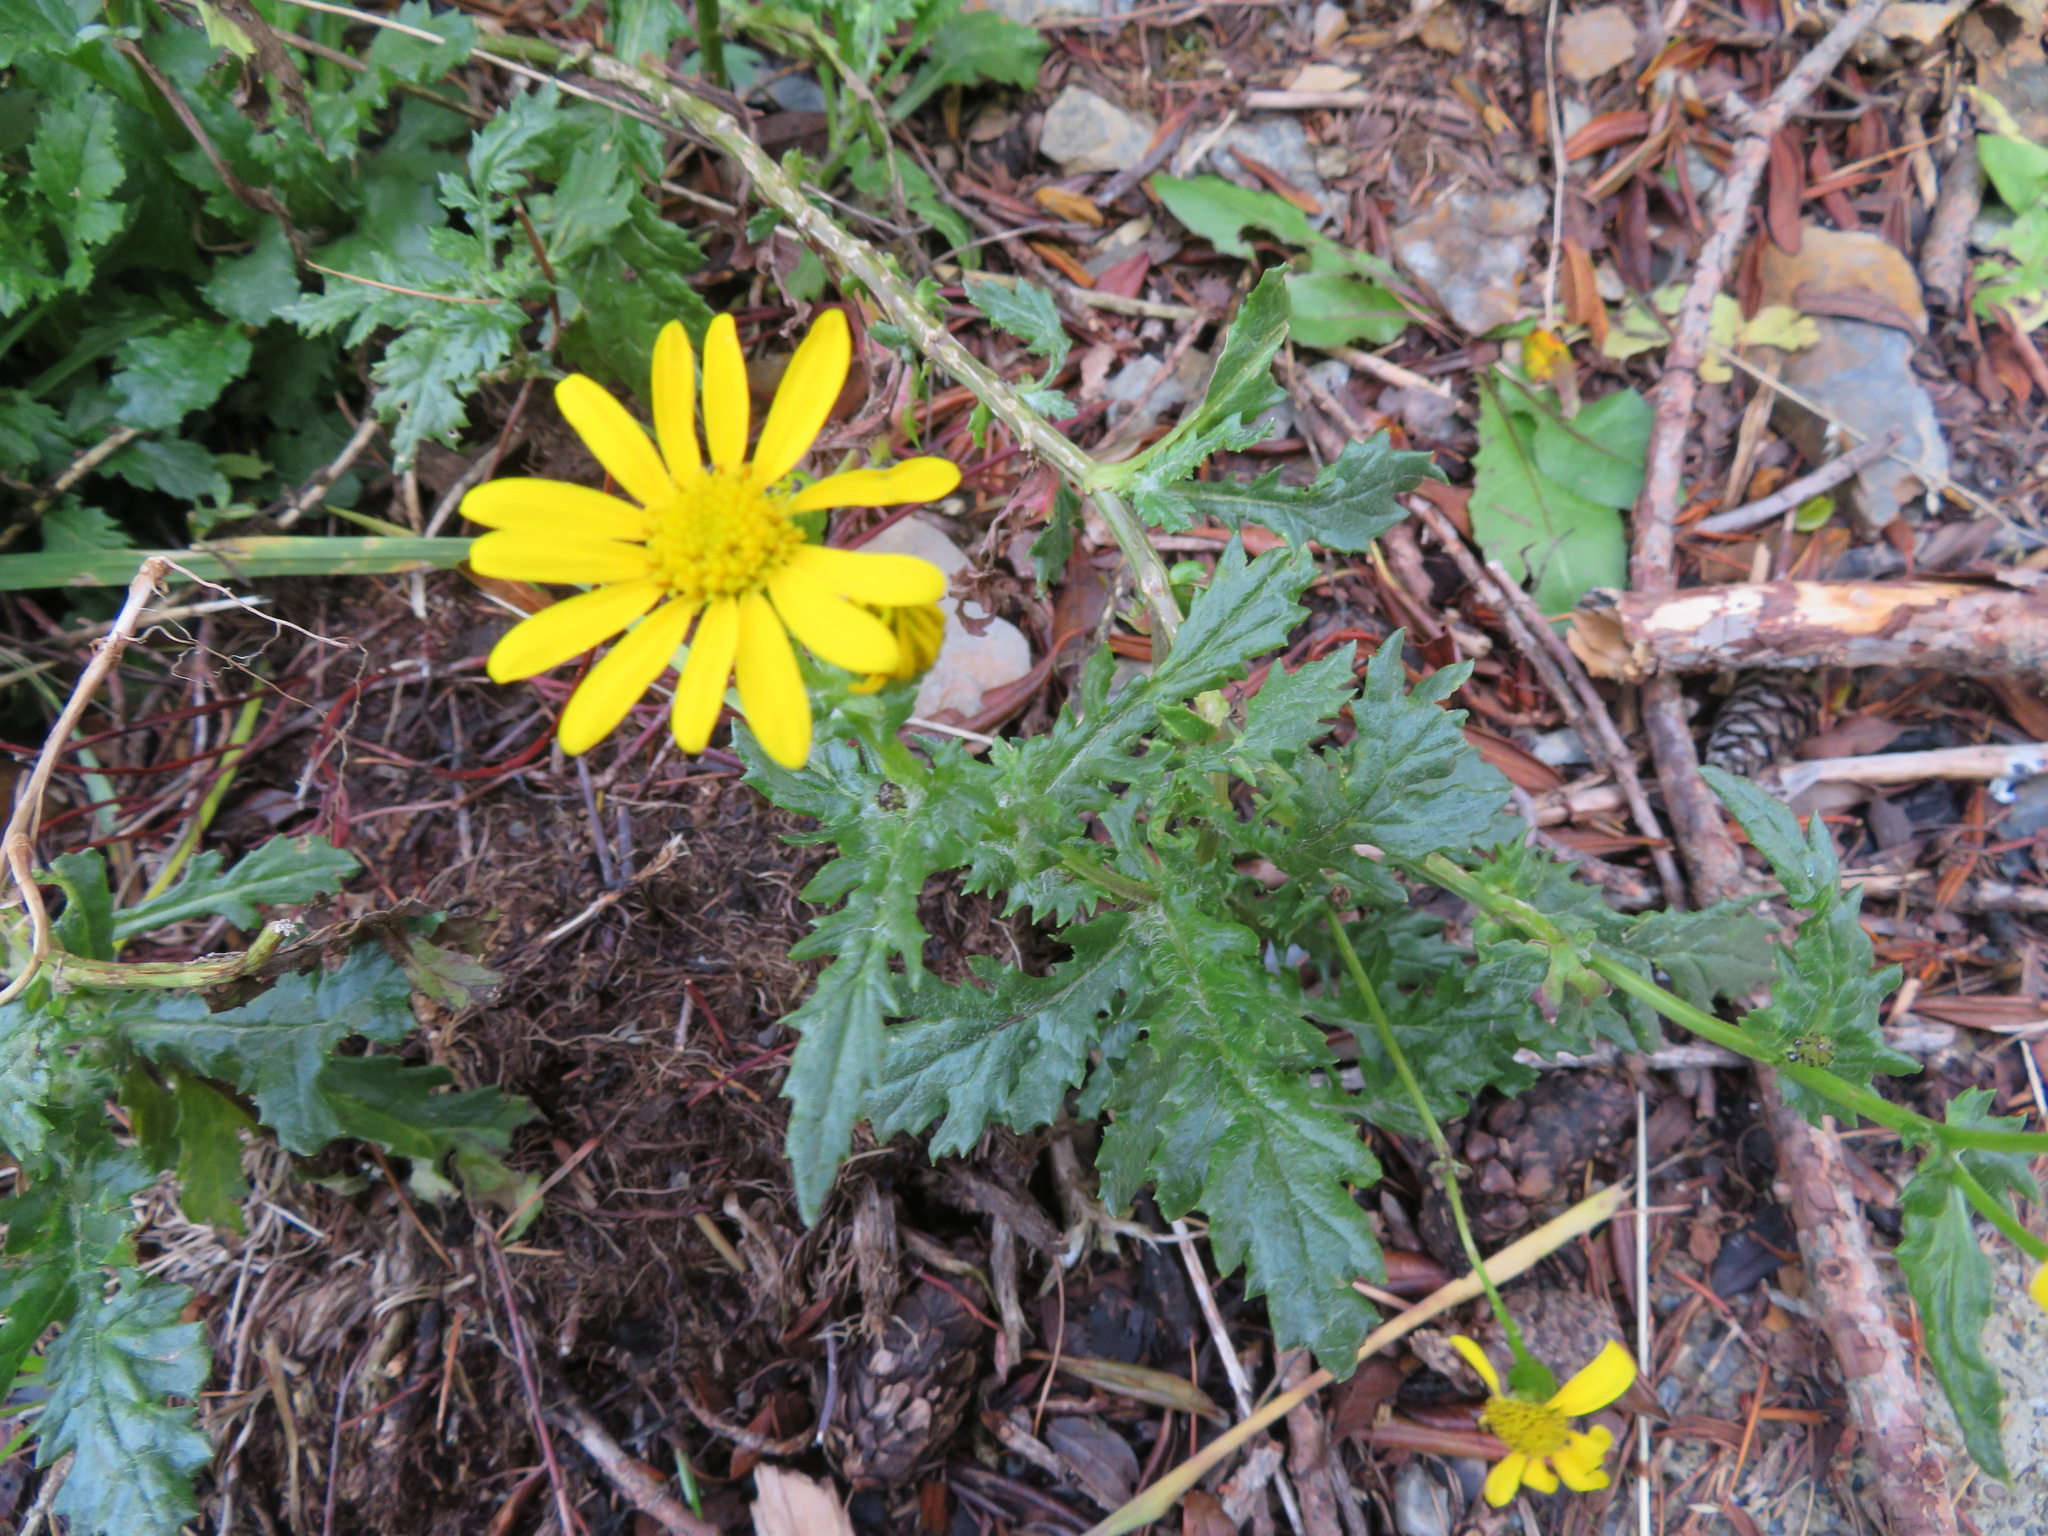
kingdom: Plantae
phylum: Tracheophyta
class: Magnoliopsida
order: Asterales
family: Asteraceae
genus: Senecio
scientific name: Senecio rupestris
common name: Rock ragwort
